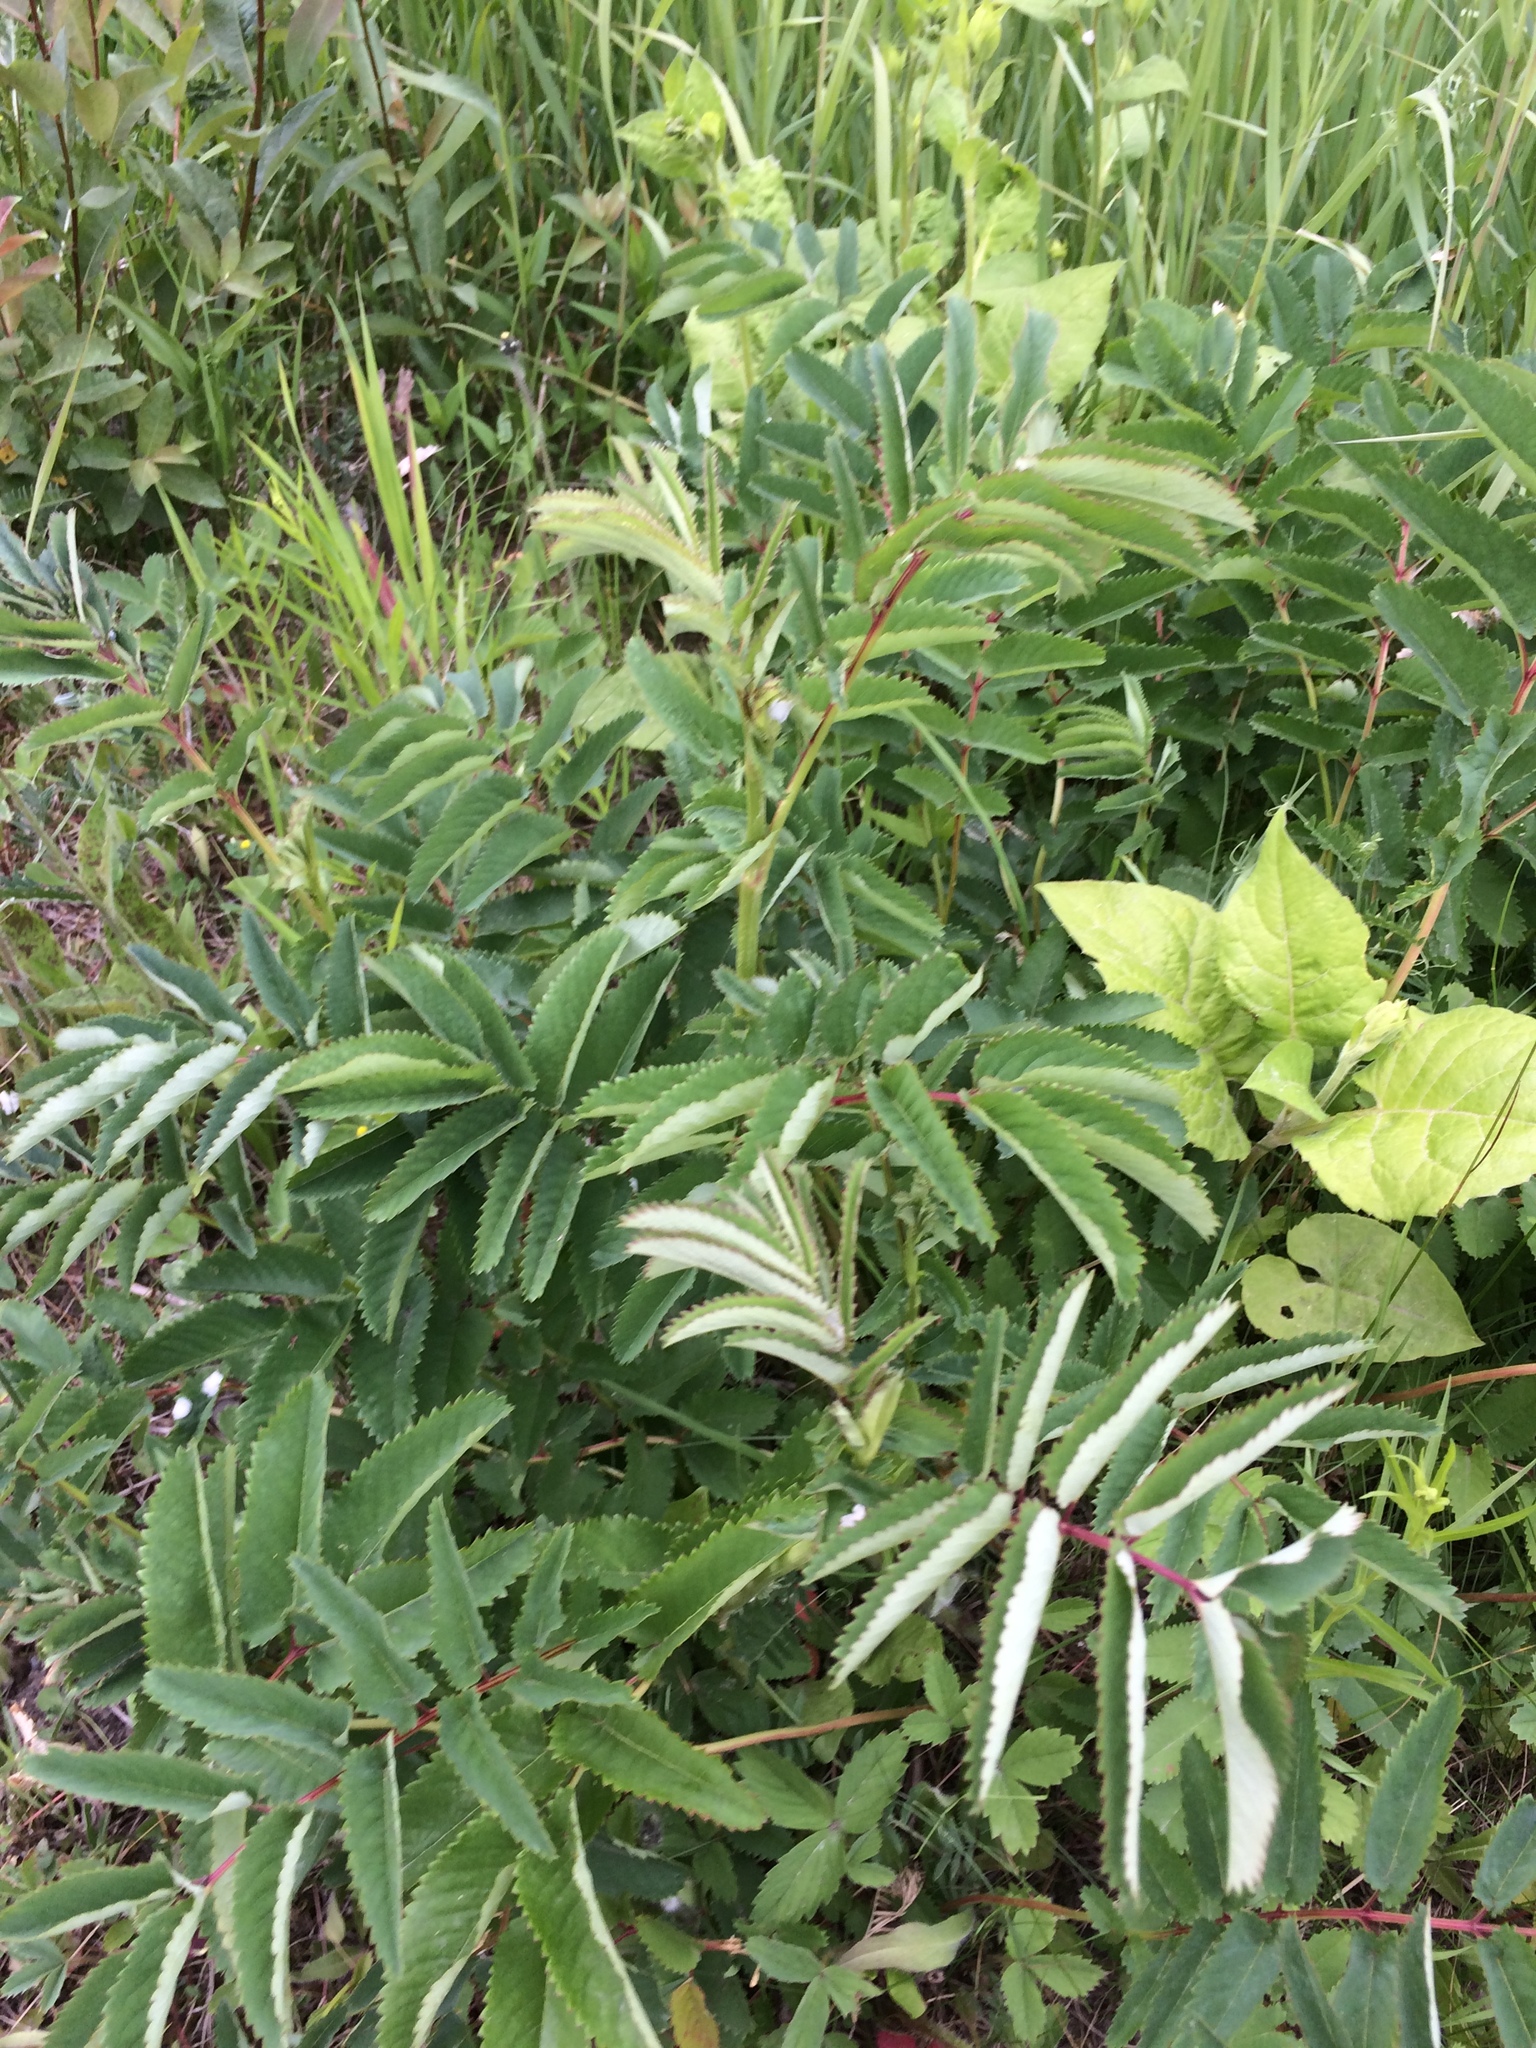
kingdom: Plantae
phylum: Tracheophyta
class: Magnoliopsida
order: Rosales
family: Rosaceae
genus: Sanguisorba
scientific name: Sanguisorba canadensis
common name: White burnet
